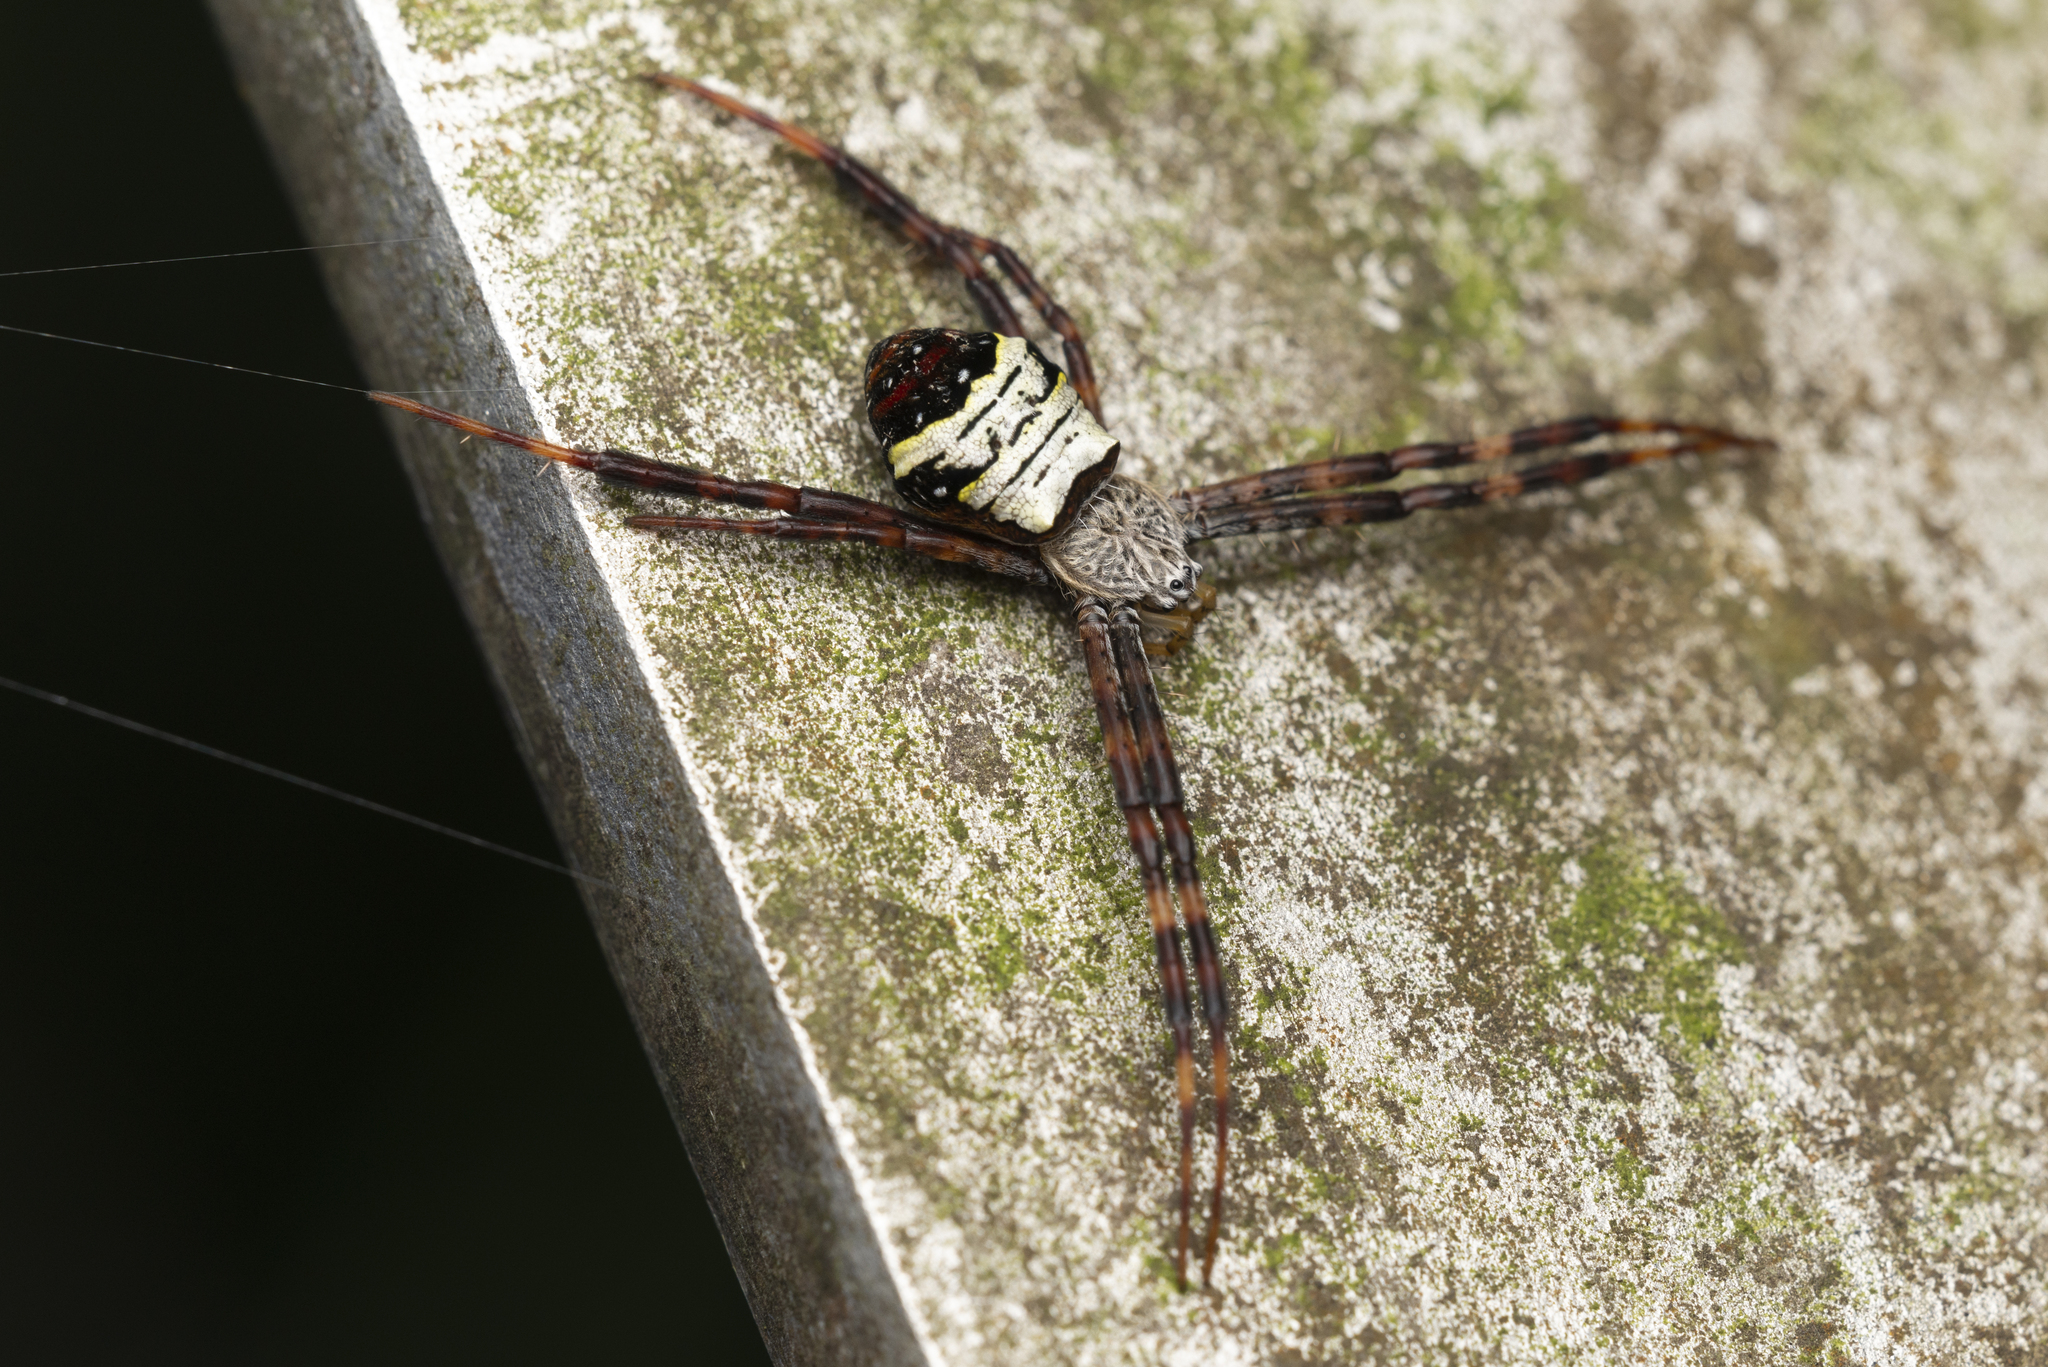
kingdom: Animalia
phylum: Arthropoda
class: Arachnida
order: Araneae
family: Araneidae
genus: Argiope
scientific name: Argiope vietnamensis
